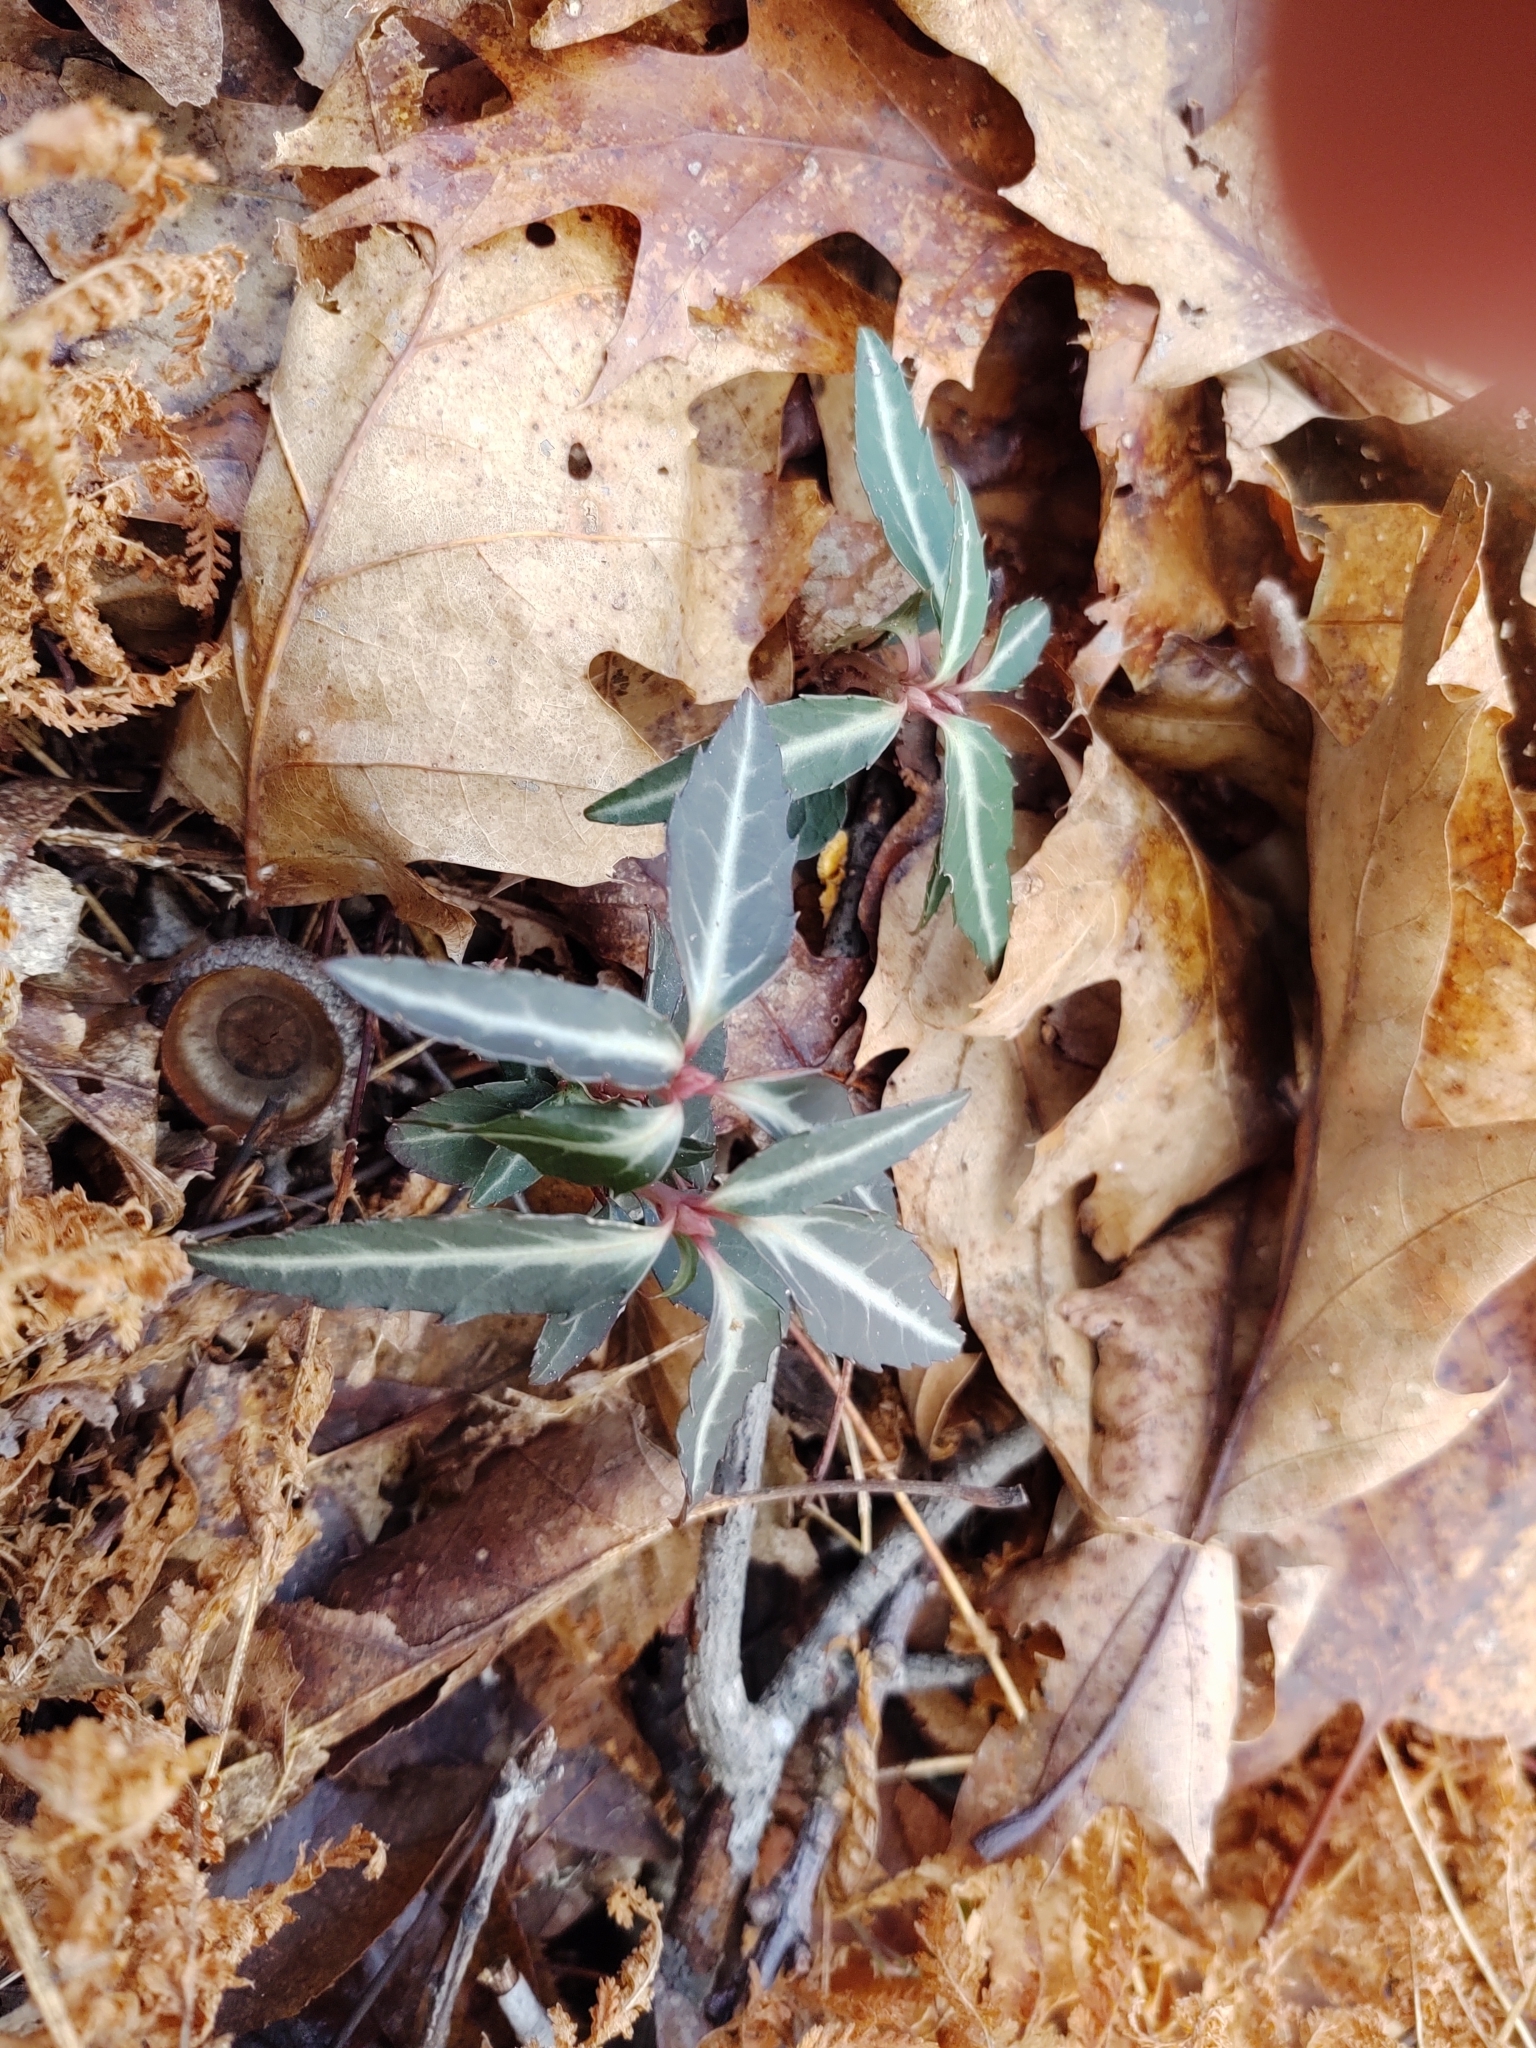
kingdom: Plantae
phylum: Tracheophyta
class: Magnoliopsida
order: Ericales
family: Ericaceae
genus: Chimaphila
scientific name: Chimaphila maculata
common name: Spotted pipsissewa
